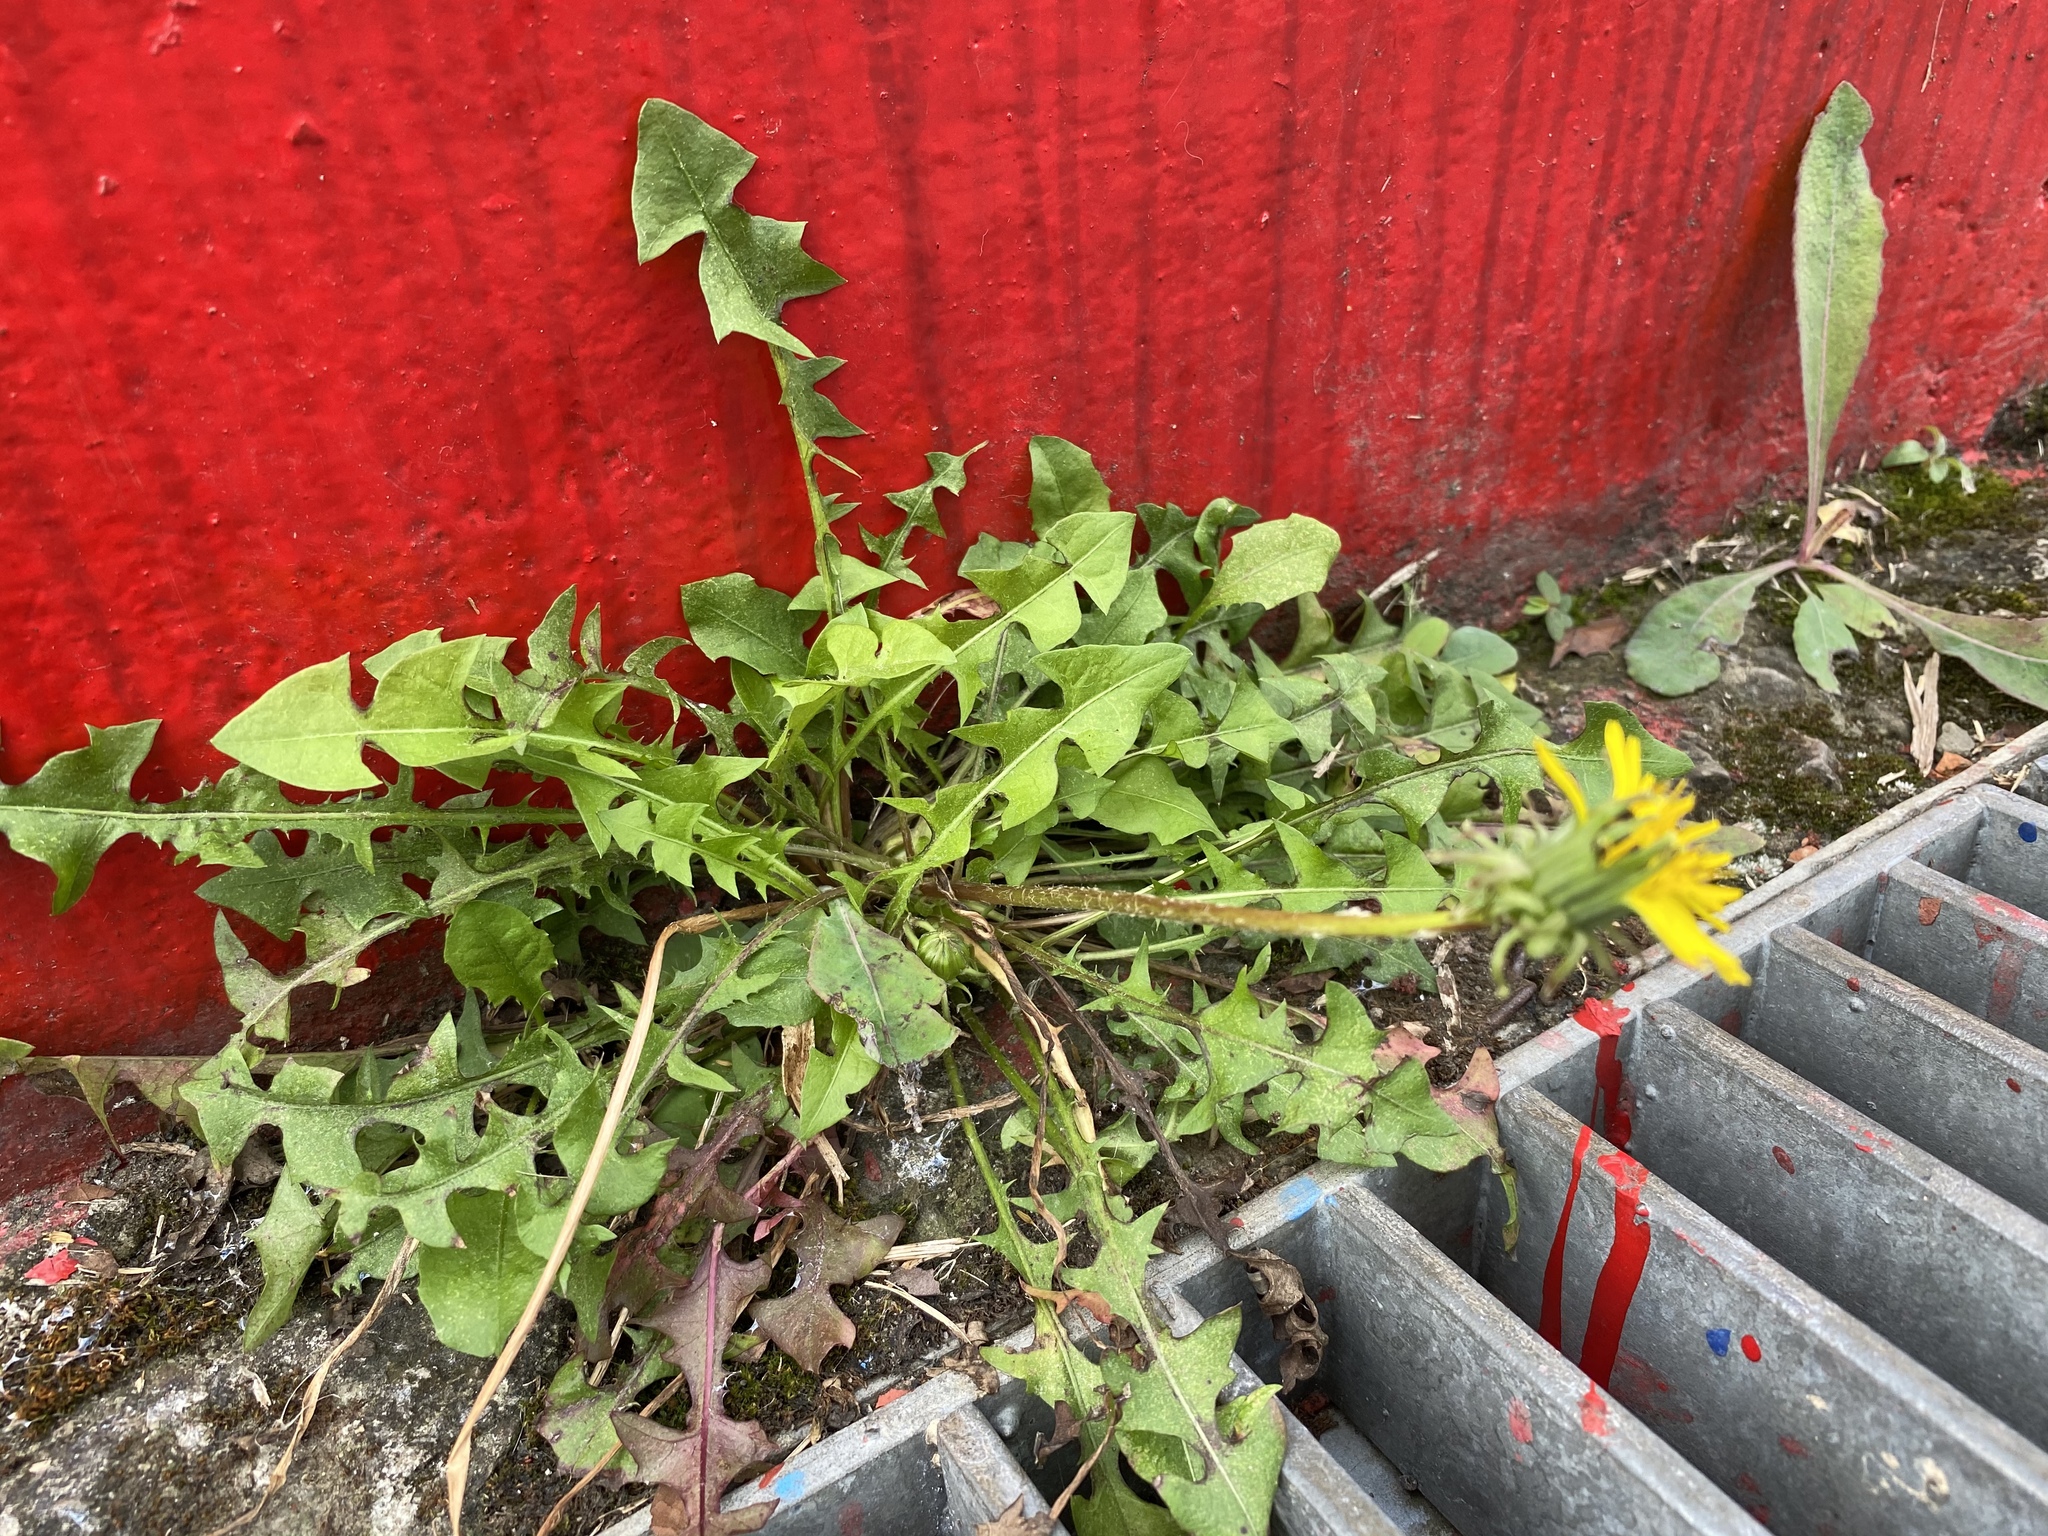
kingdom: Plantae
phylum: Tracheophyta
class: Magnoliopsida
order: Asterales
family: Asteraceae
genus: Taraxacum
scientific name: Taraxacum officinale
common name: Common dandelion
